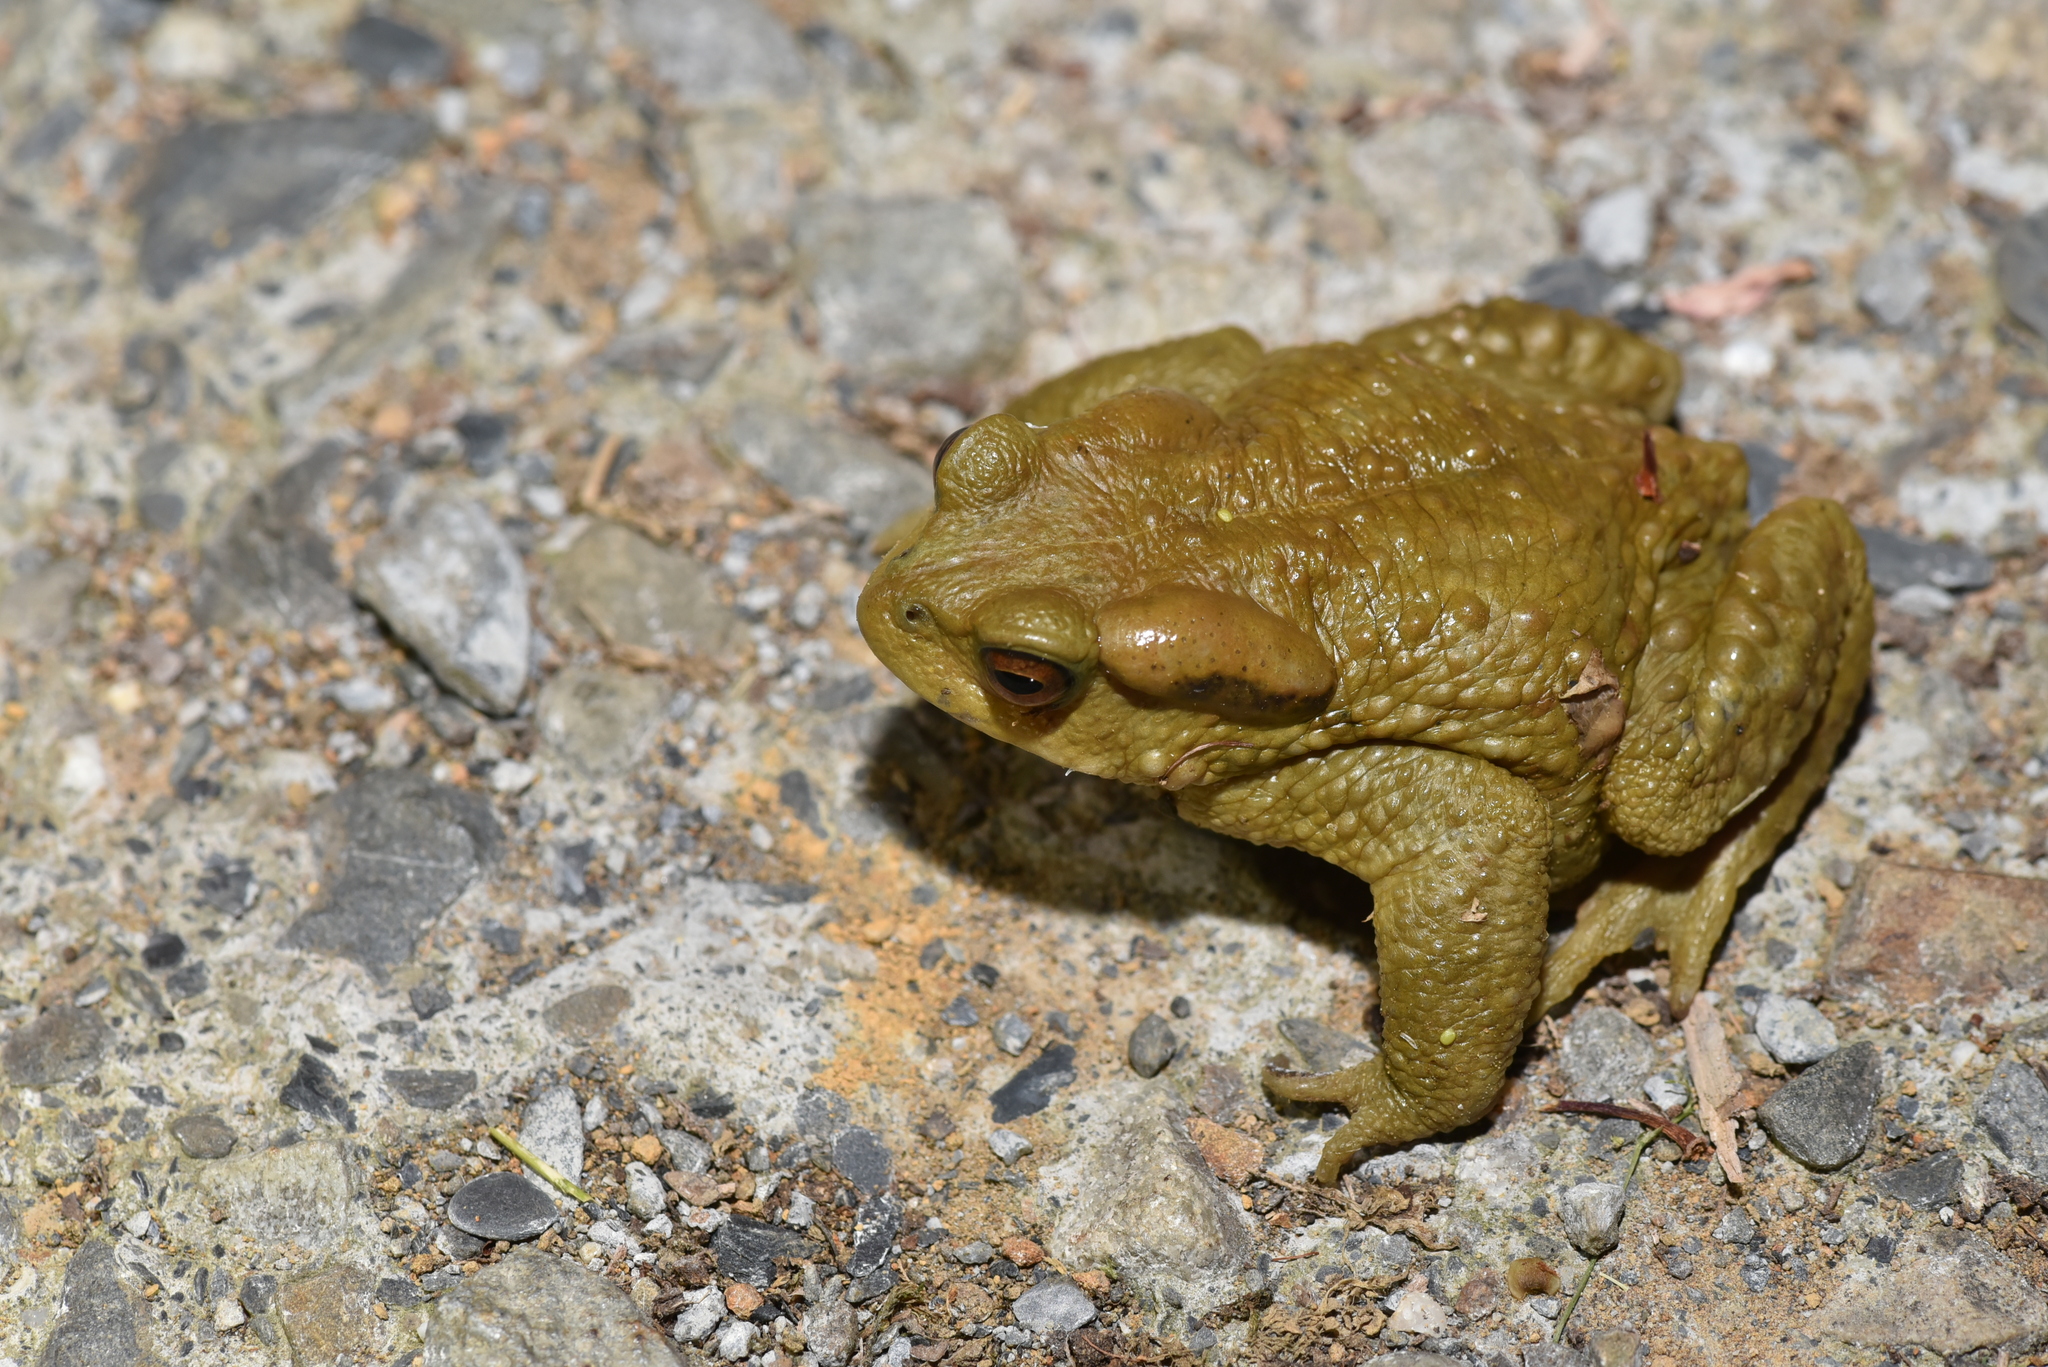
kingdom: Animalia
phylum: Chordata
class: Amphibia
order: Anura
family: Bufonidae
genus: Bufo
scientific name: Bufo bankorensis
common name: Bankor toad
